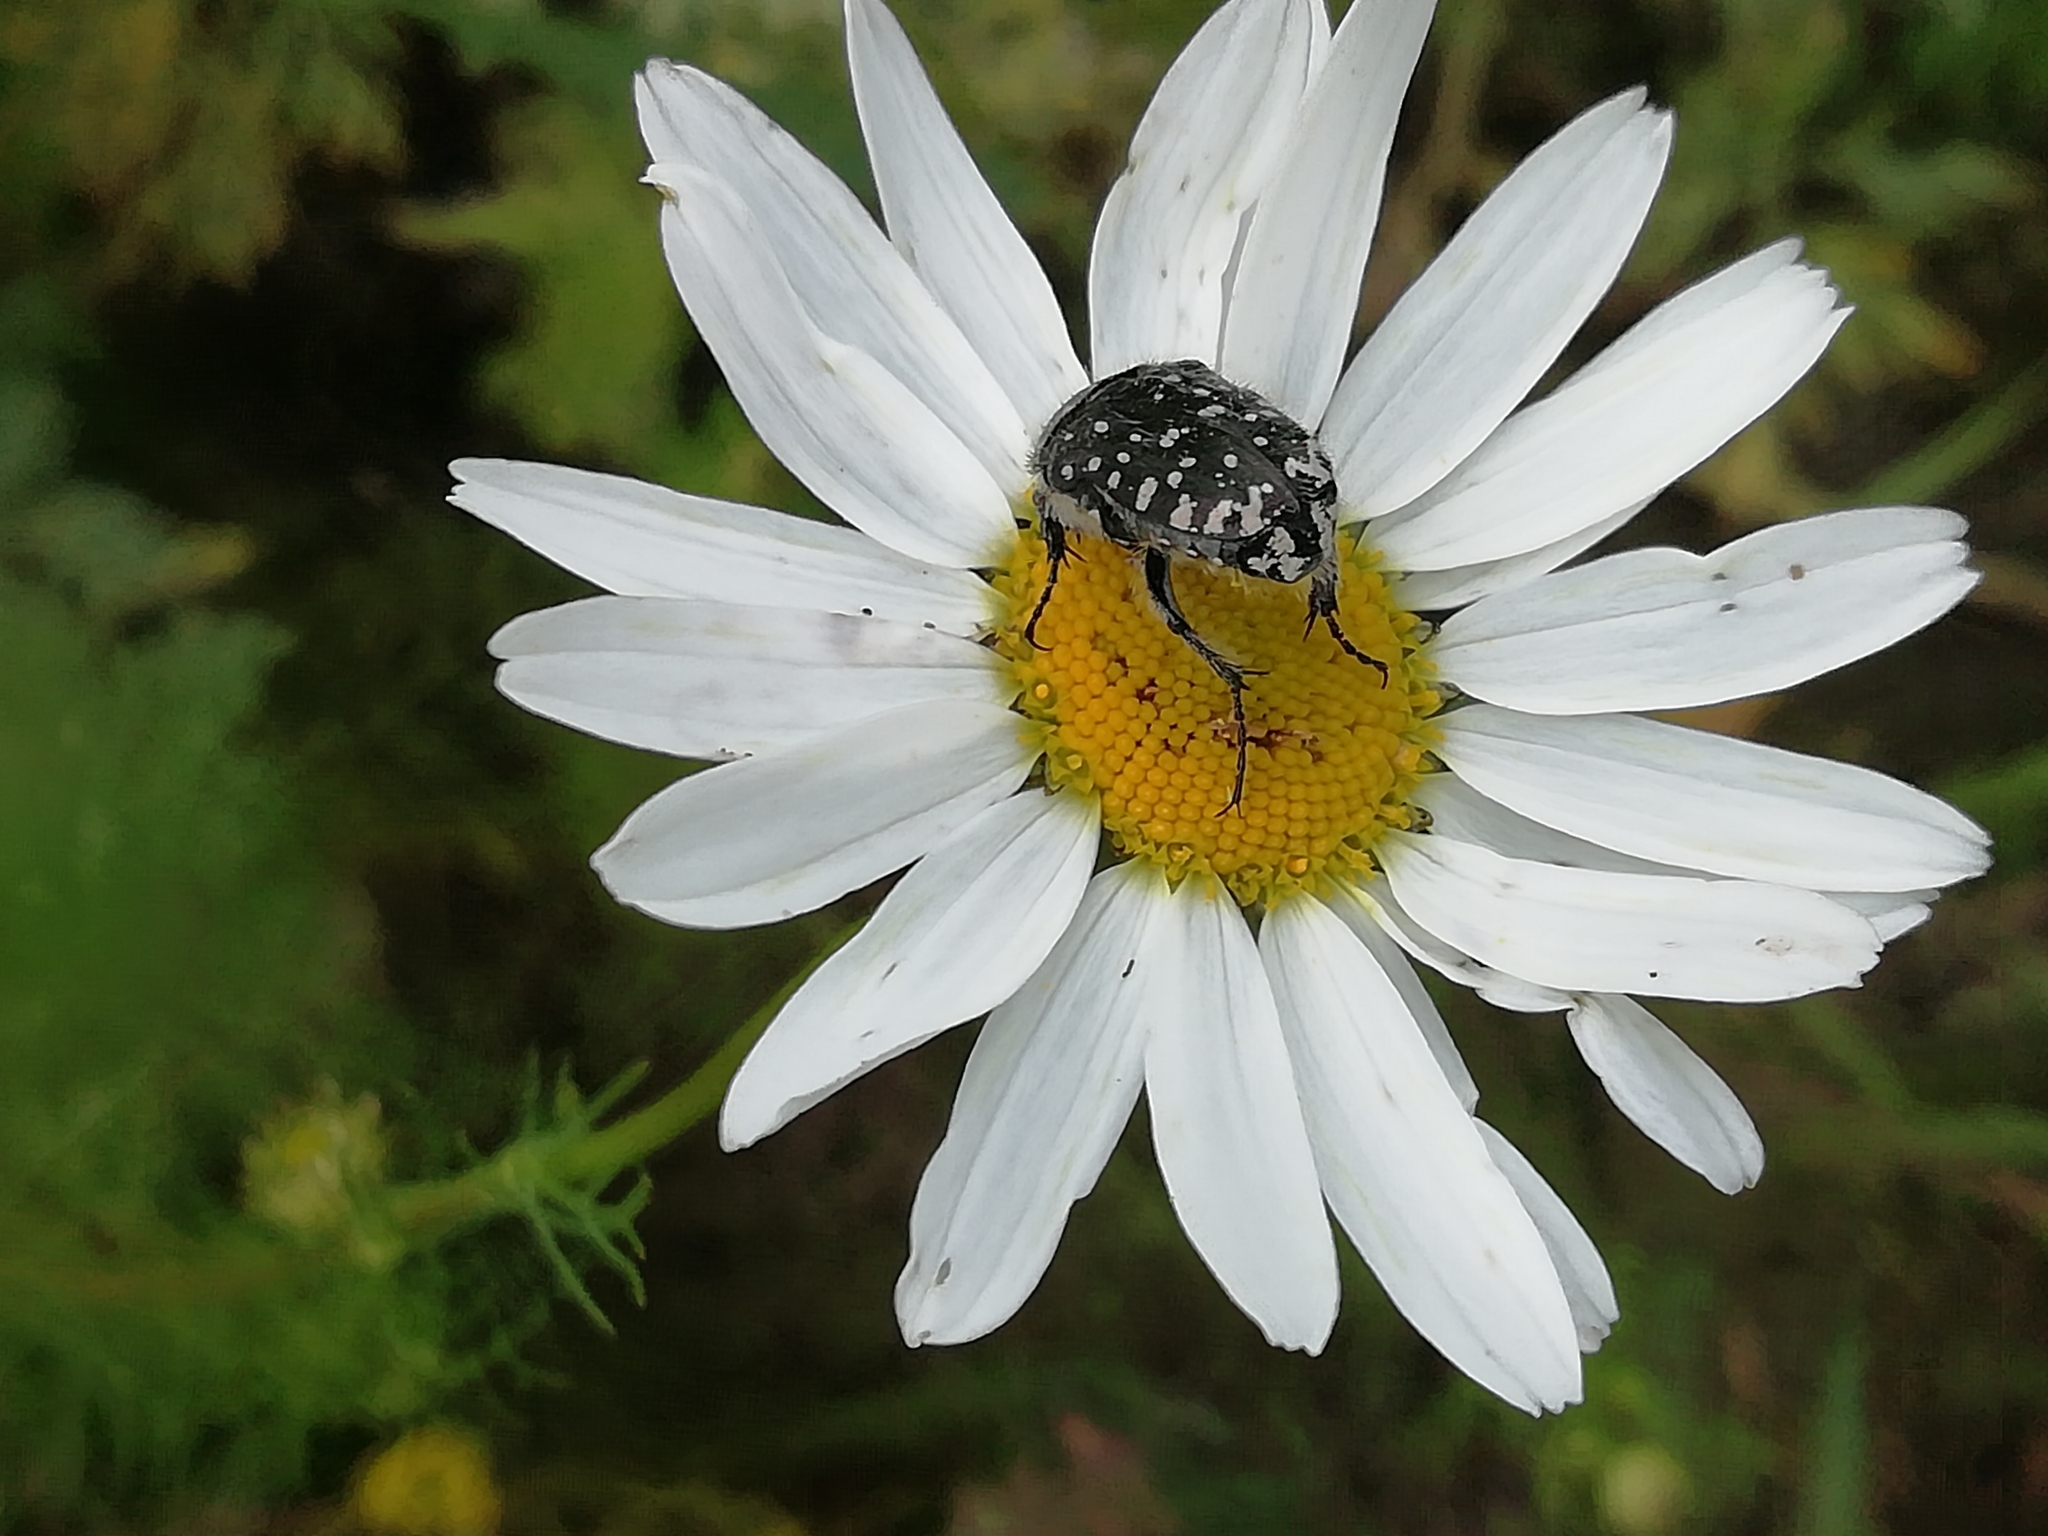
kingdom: Animalia
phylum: Arthropoda
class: Insecta
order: Coleoptera
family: Scarabaeidae
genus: Oxythyrea
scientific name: Oxythyrea funesta
